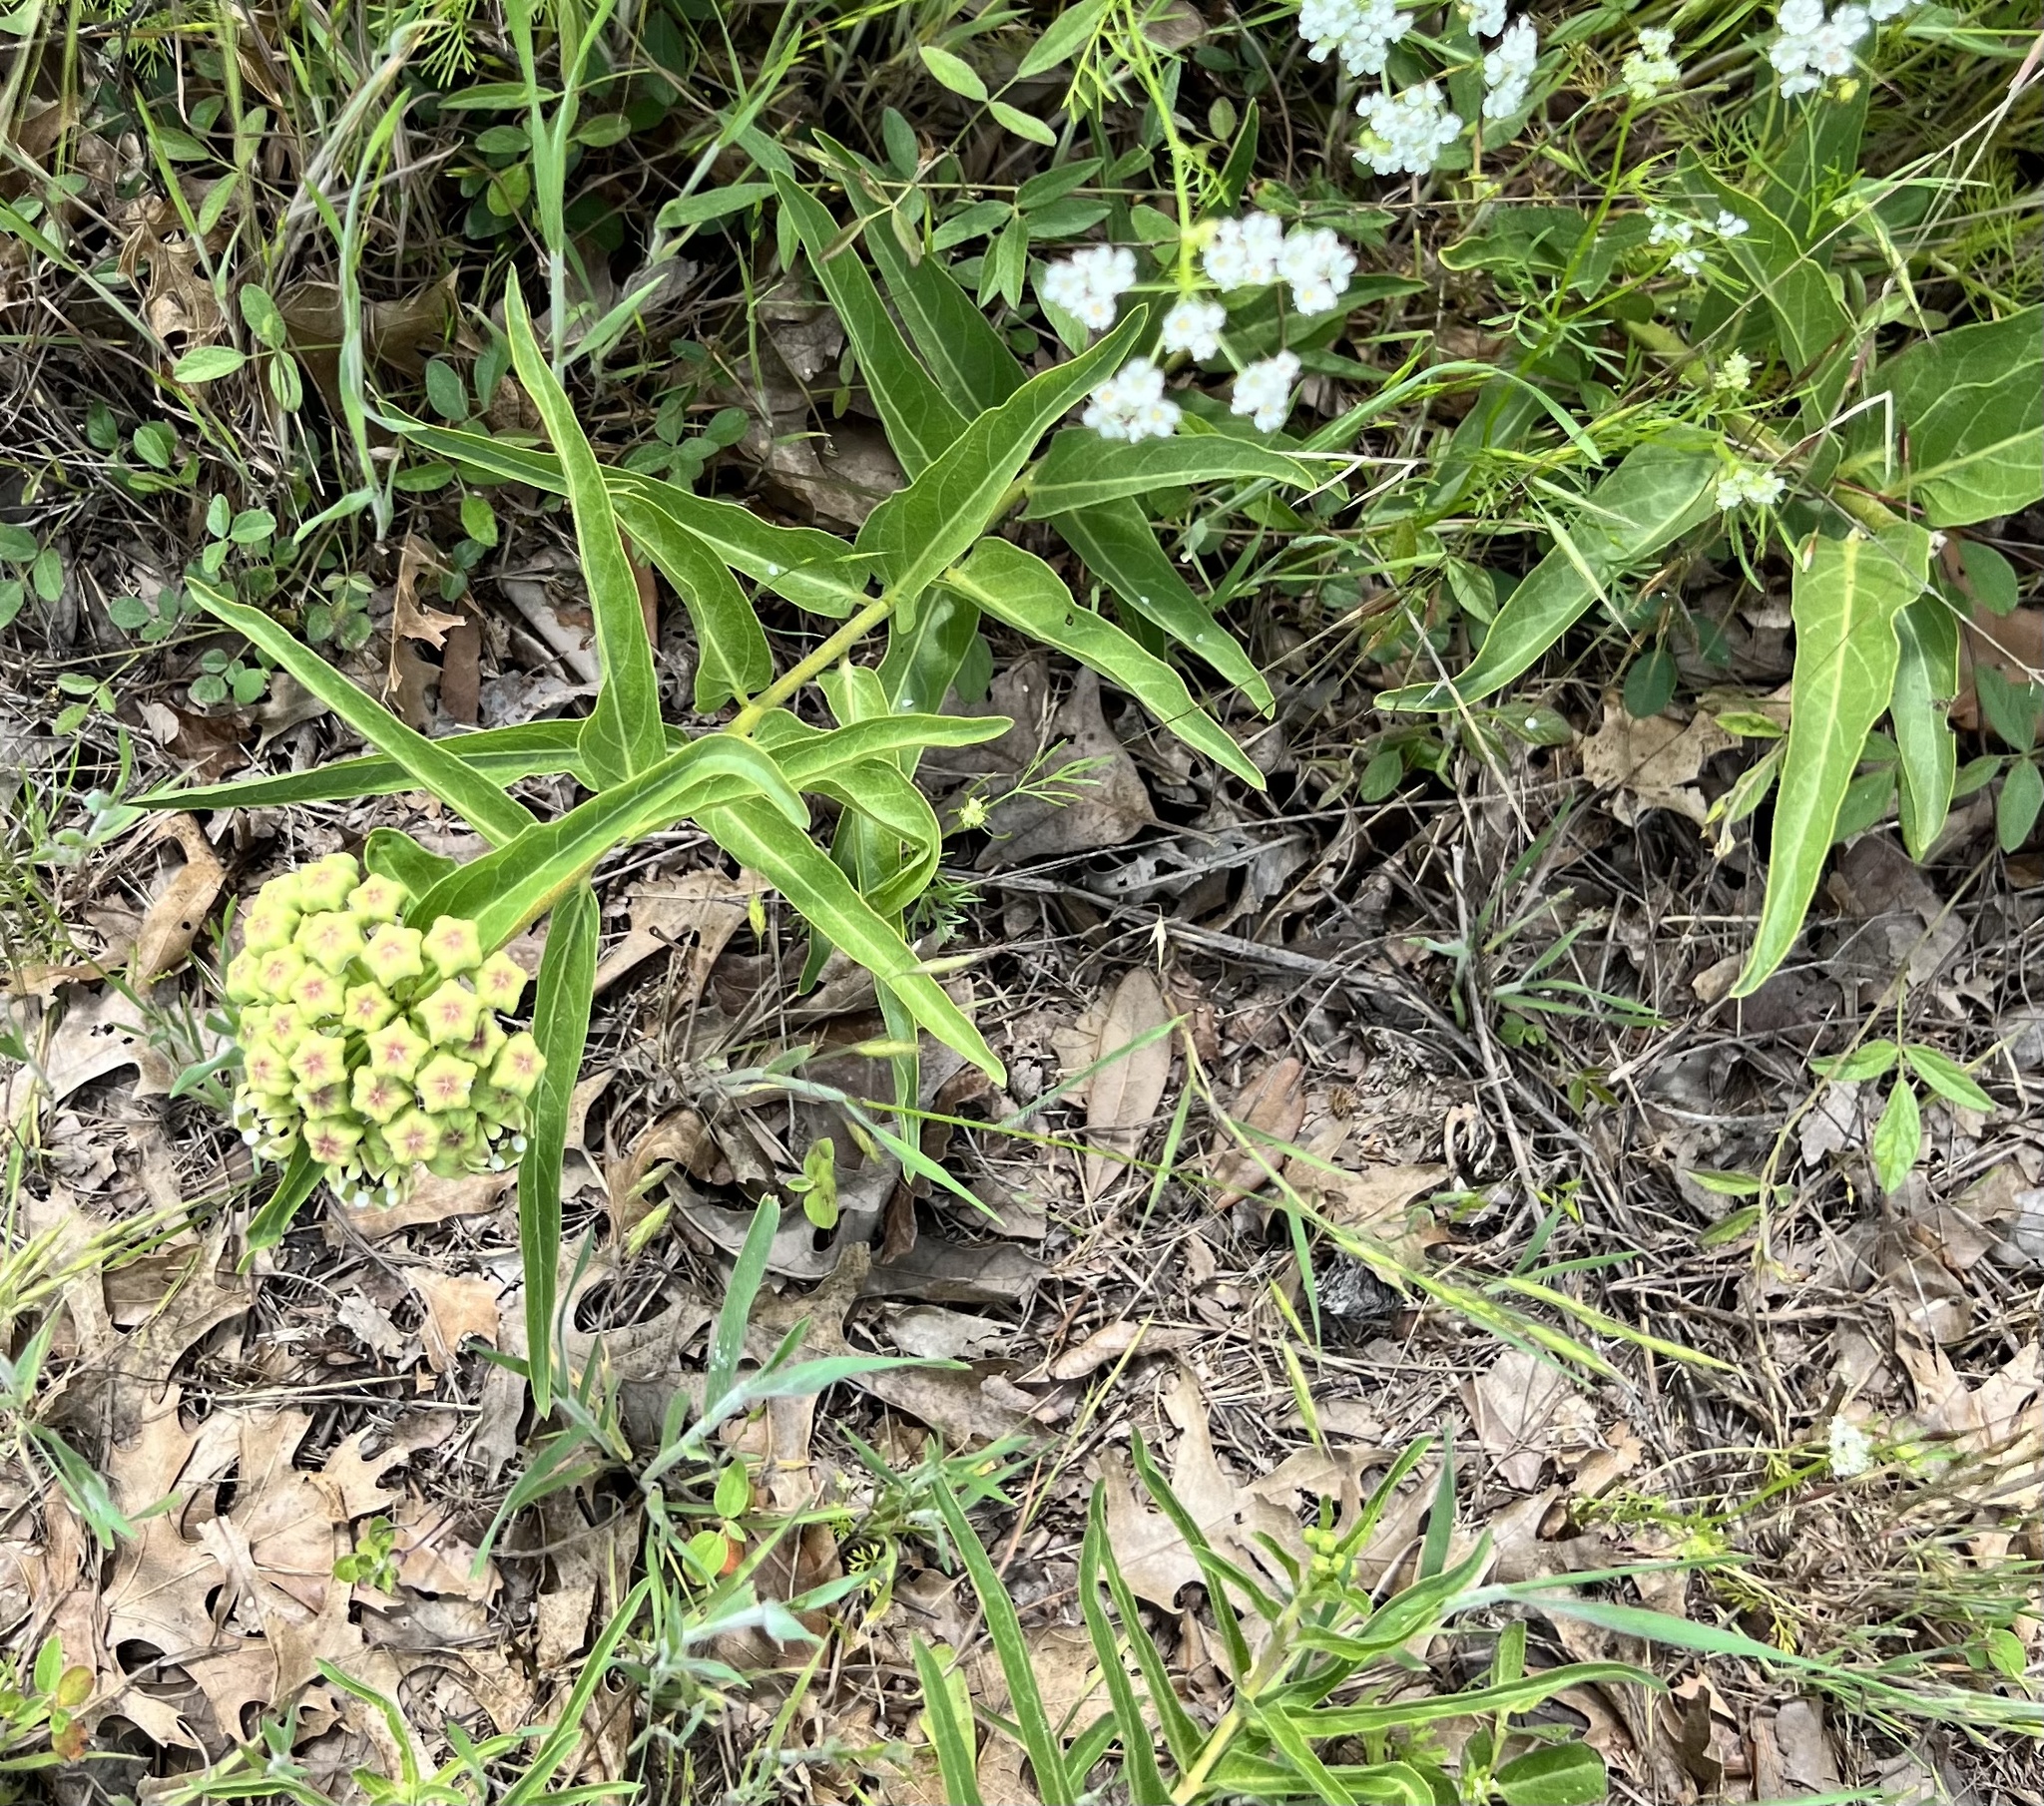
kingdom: Plantae
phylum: Tracheophyta
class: Magnoliopsida
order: Gentianales
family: Apocynaceae
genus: Asclepias
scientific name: Asclepias asperula
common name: Antelope horns
